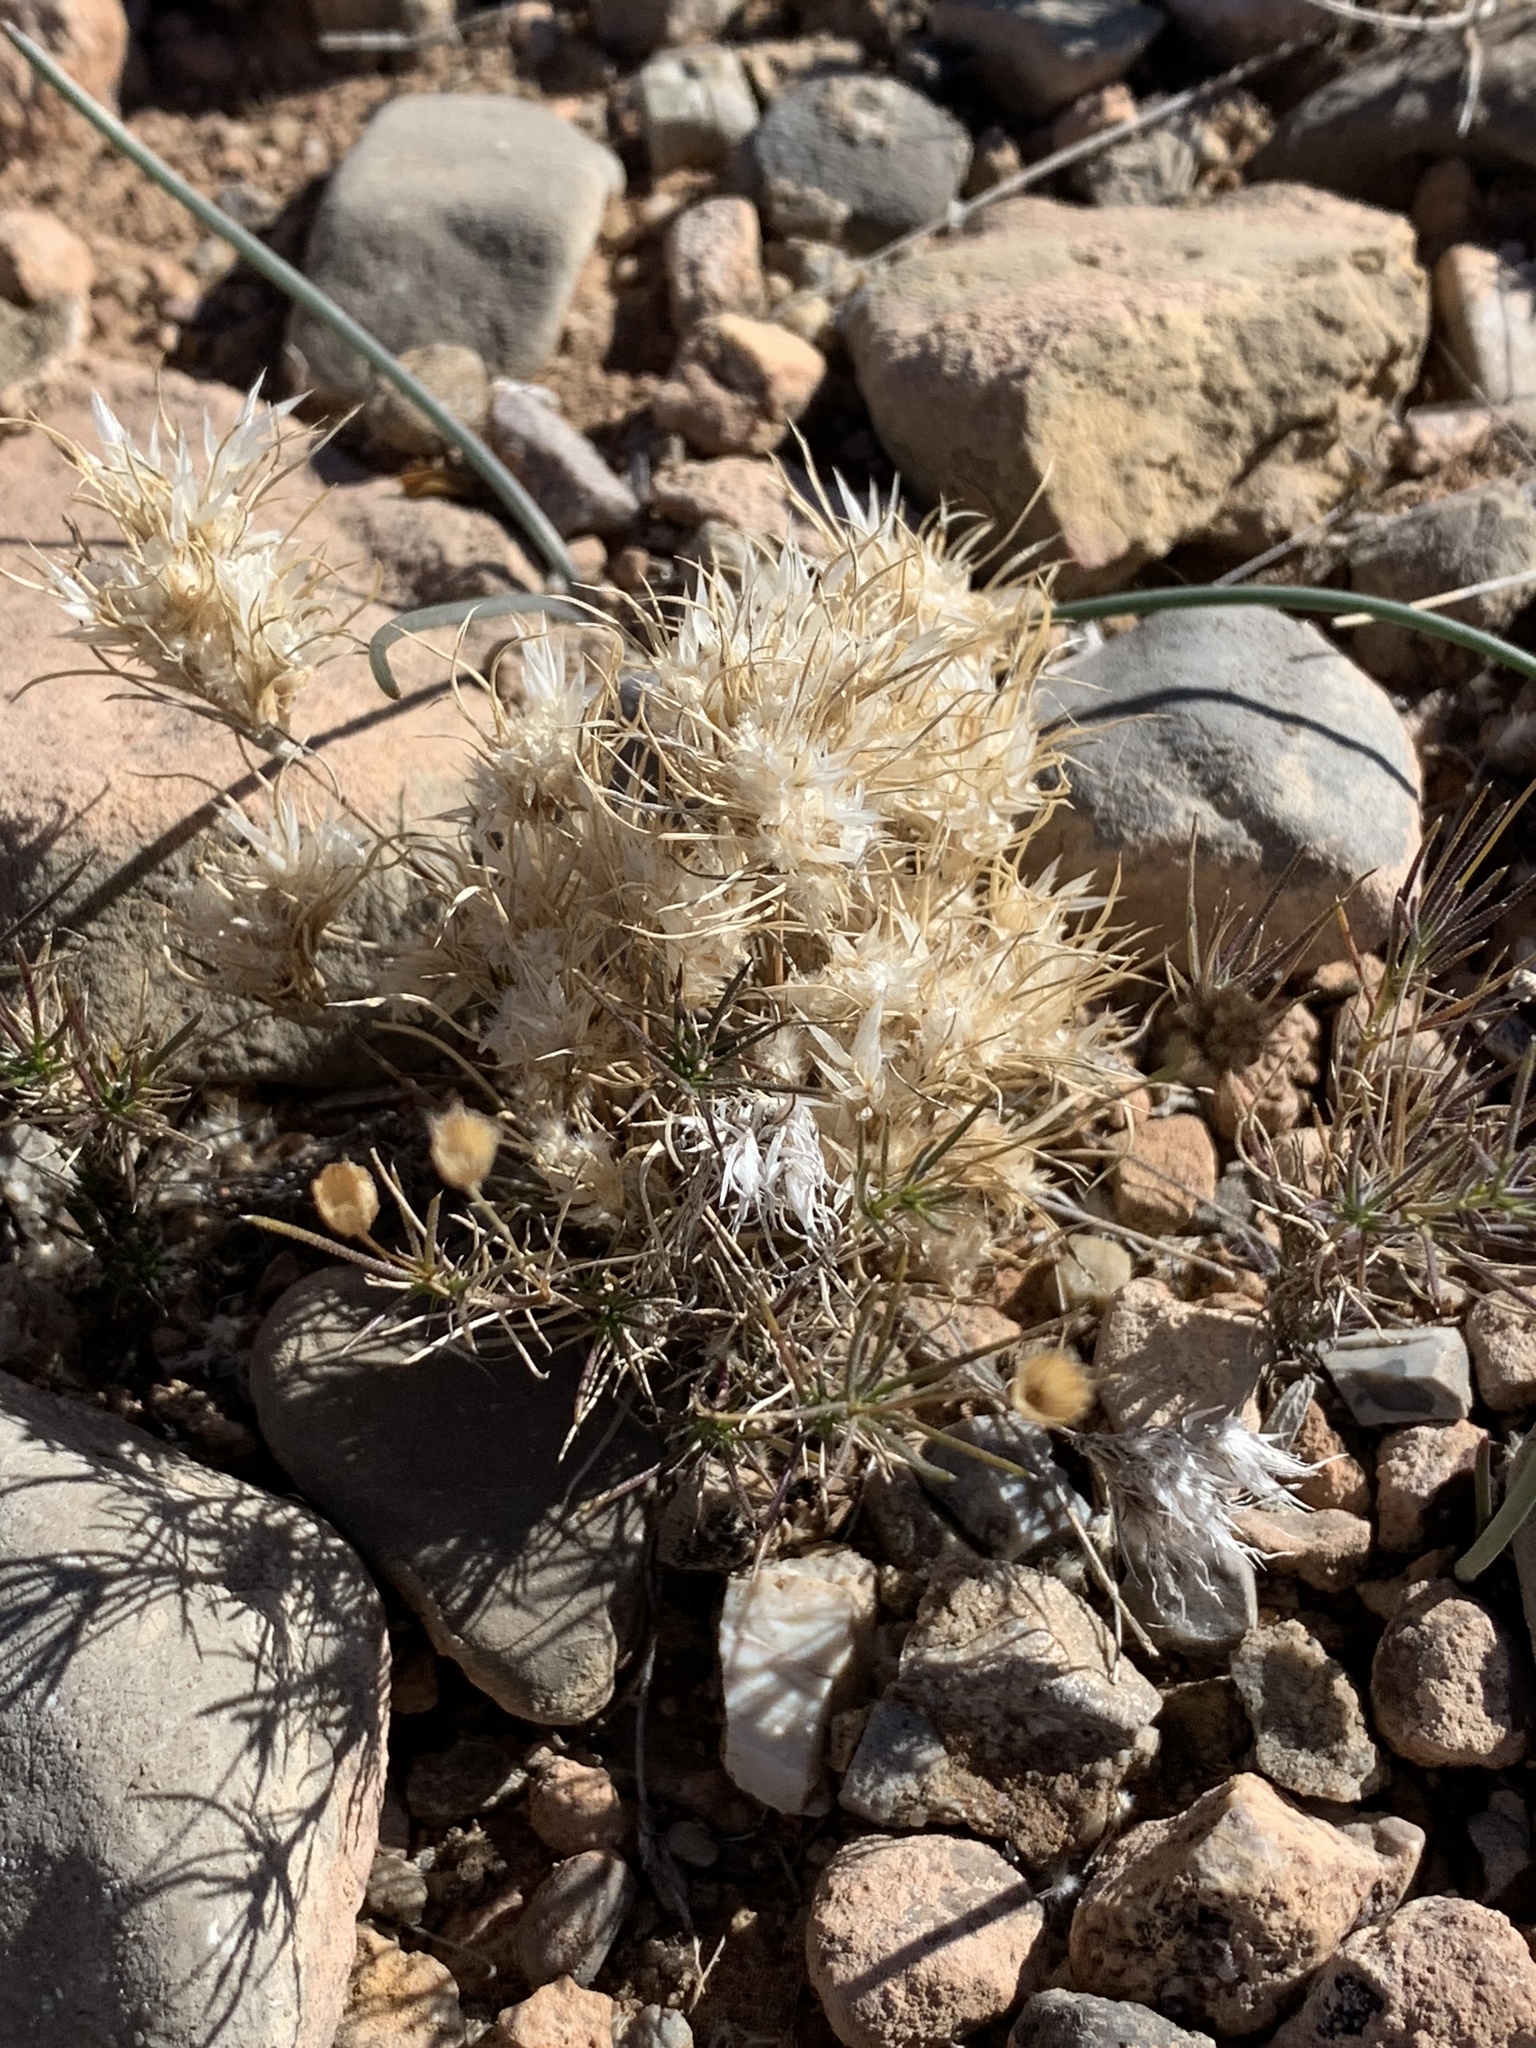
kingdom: Plantae
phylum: Tracheophyta
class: Liliopsida
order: Poales
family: Poaceae
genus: Dasyochloa
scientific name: Dasyochloa pulchella
